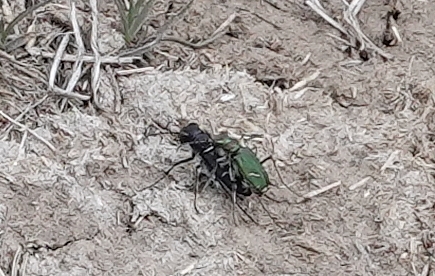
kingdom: Animalia
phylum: Arthropoda
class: Insecta
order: Coleoptera
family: Carabidae
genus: Cicindela
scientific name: Cicindela purpurea
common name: Cow path tiger beetle
